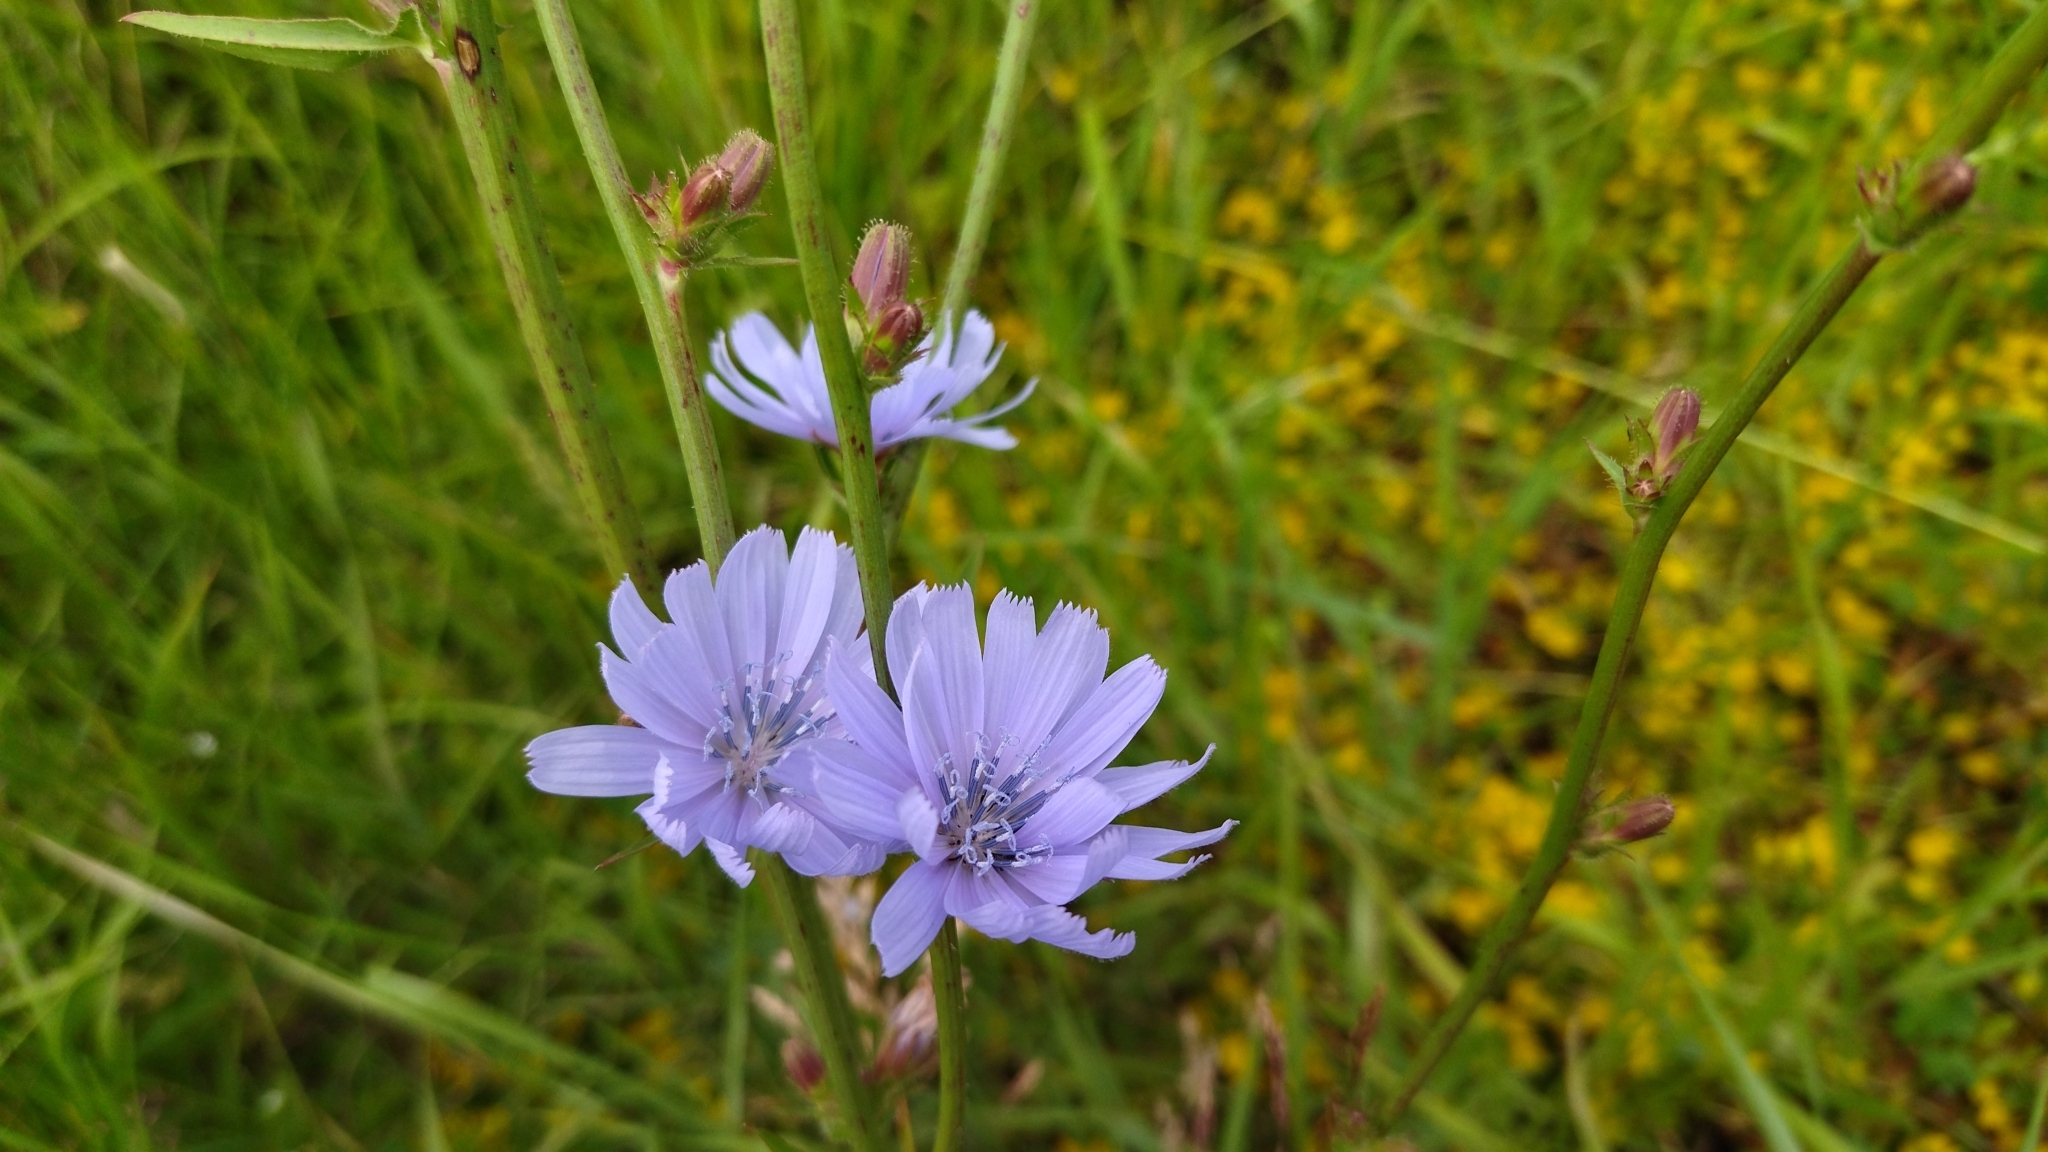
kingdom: Plantae
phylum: Tracheophyta
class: Magnoliopsida
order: Asterales
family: Asteraceae
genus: Cichorium
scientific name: Cichorium intybus
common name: Chicory
